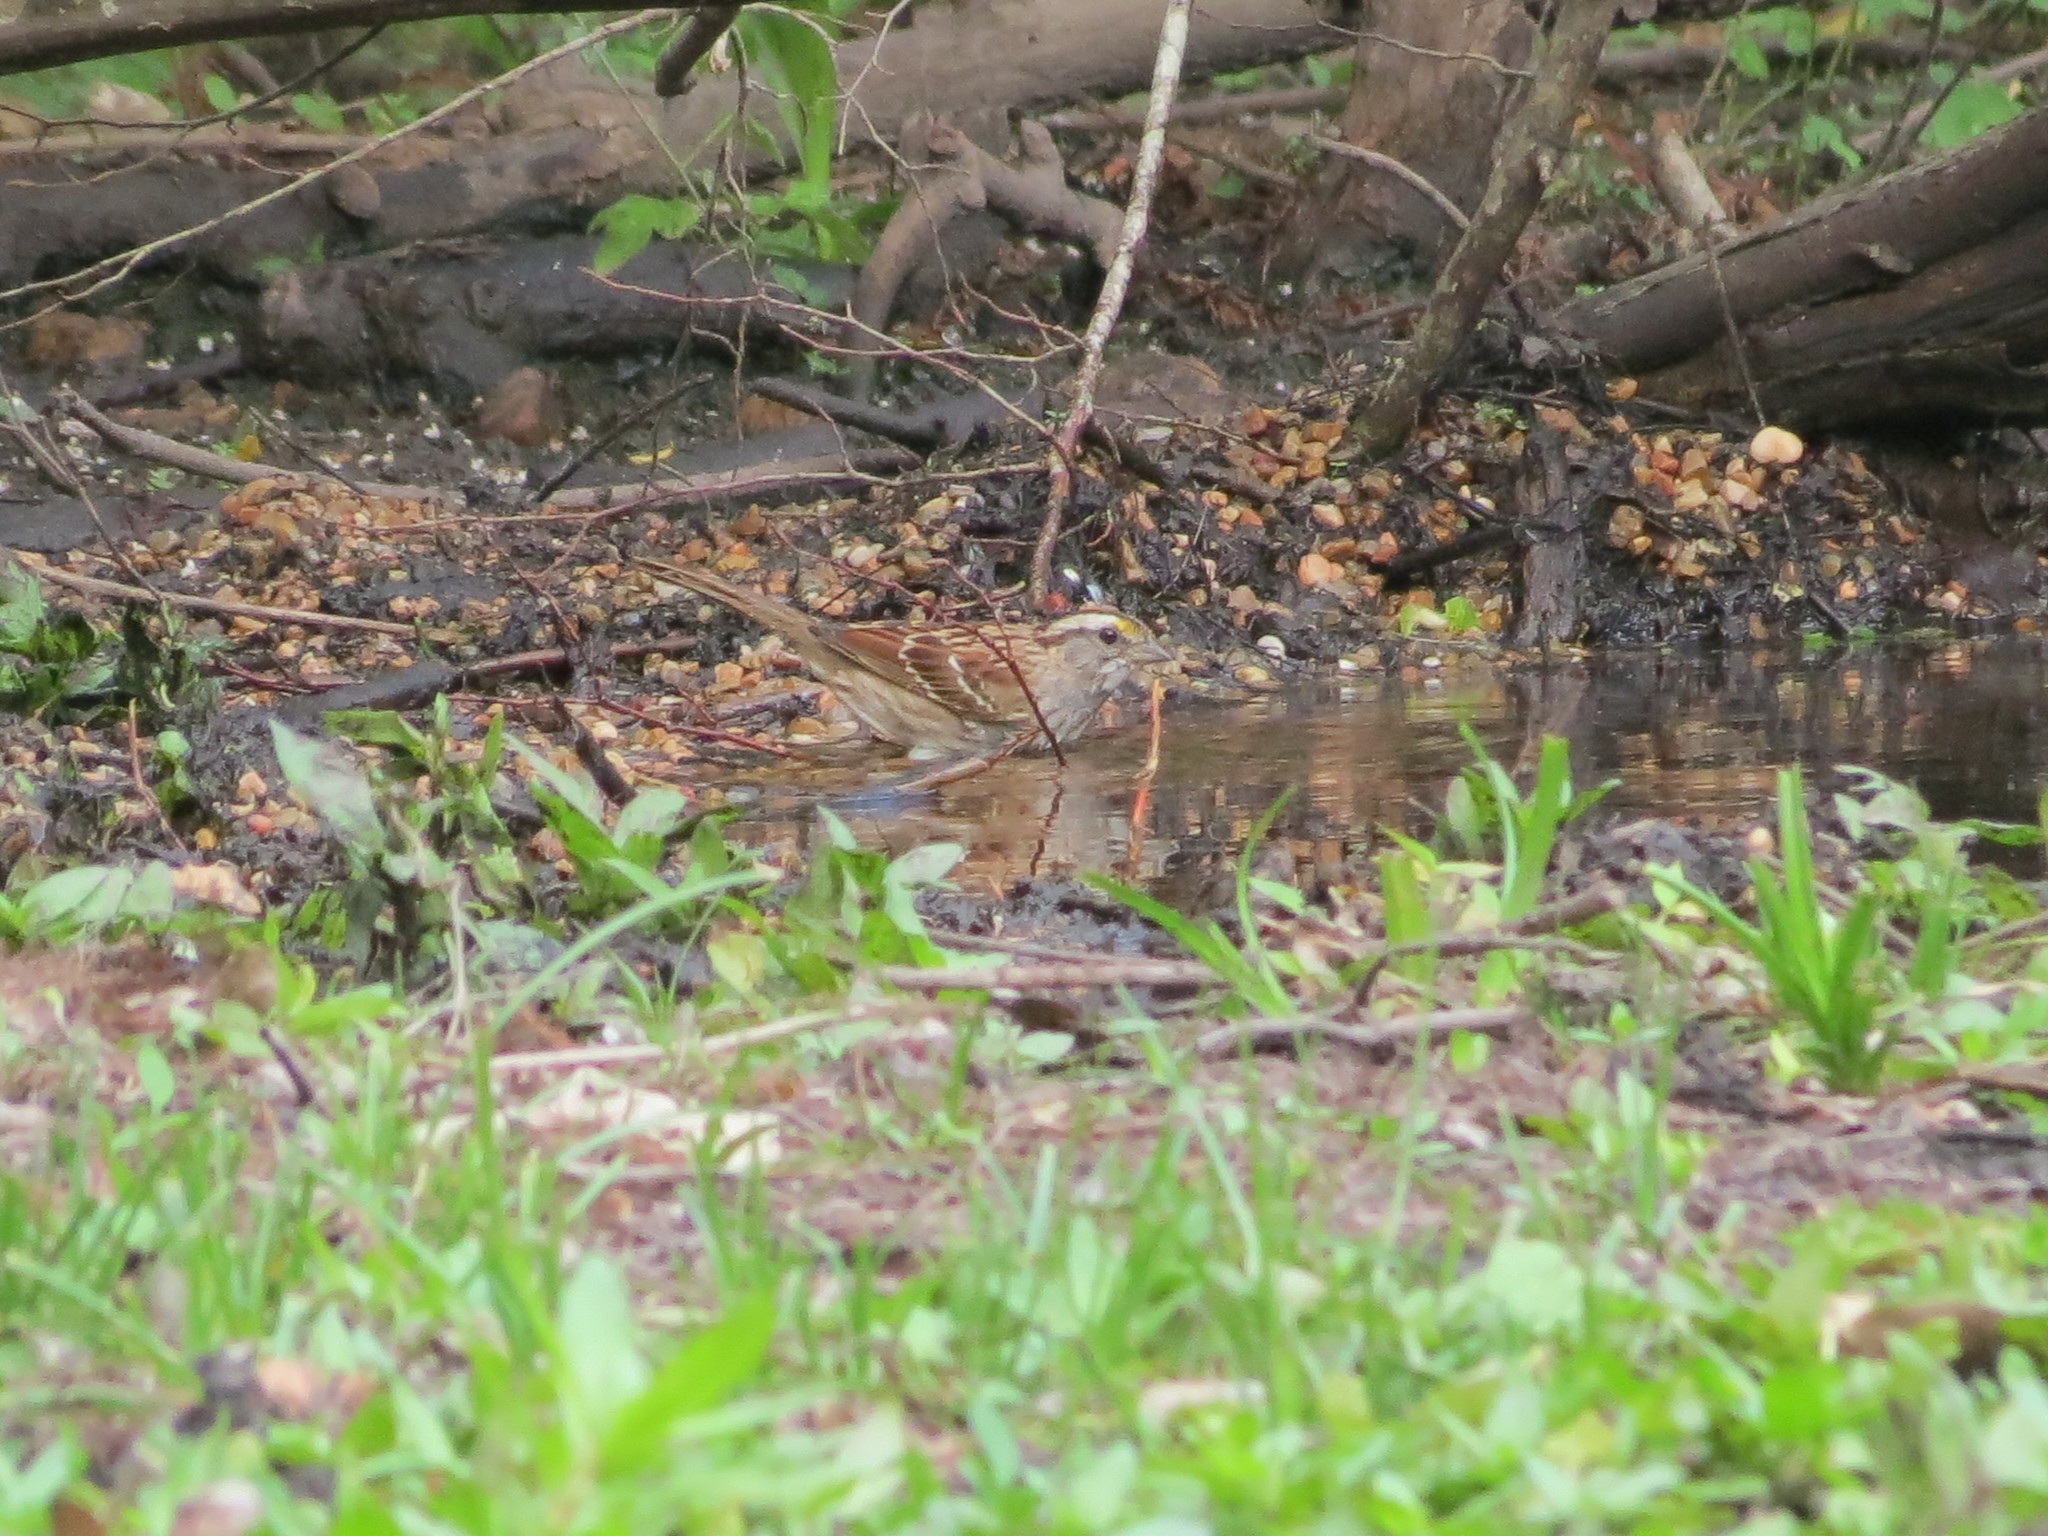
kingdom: Animalia
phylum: Chordata
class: Aves
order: Passeriformes
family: Passerellidae
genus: Zonotrichia
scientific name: Zonotrichia albicollis
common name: White-throated sparrow
